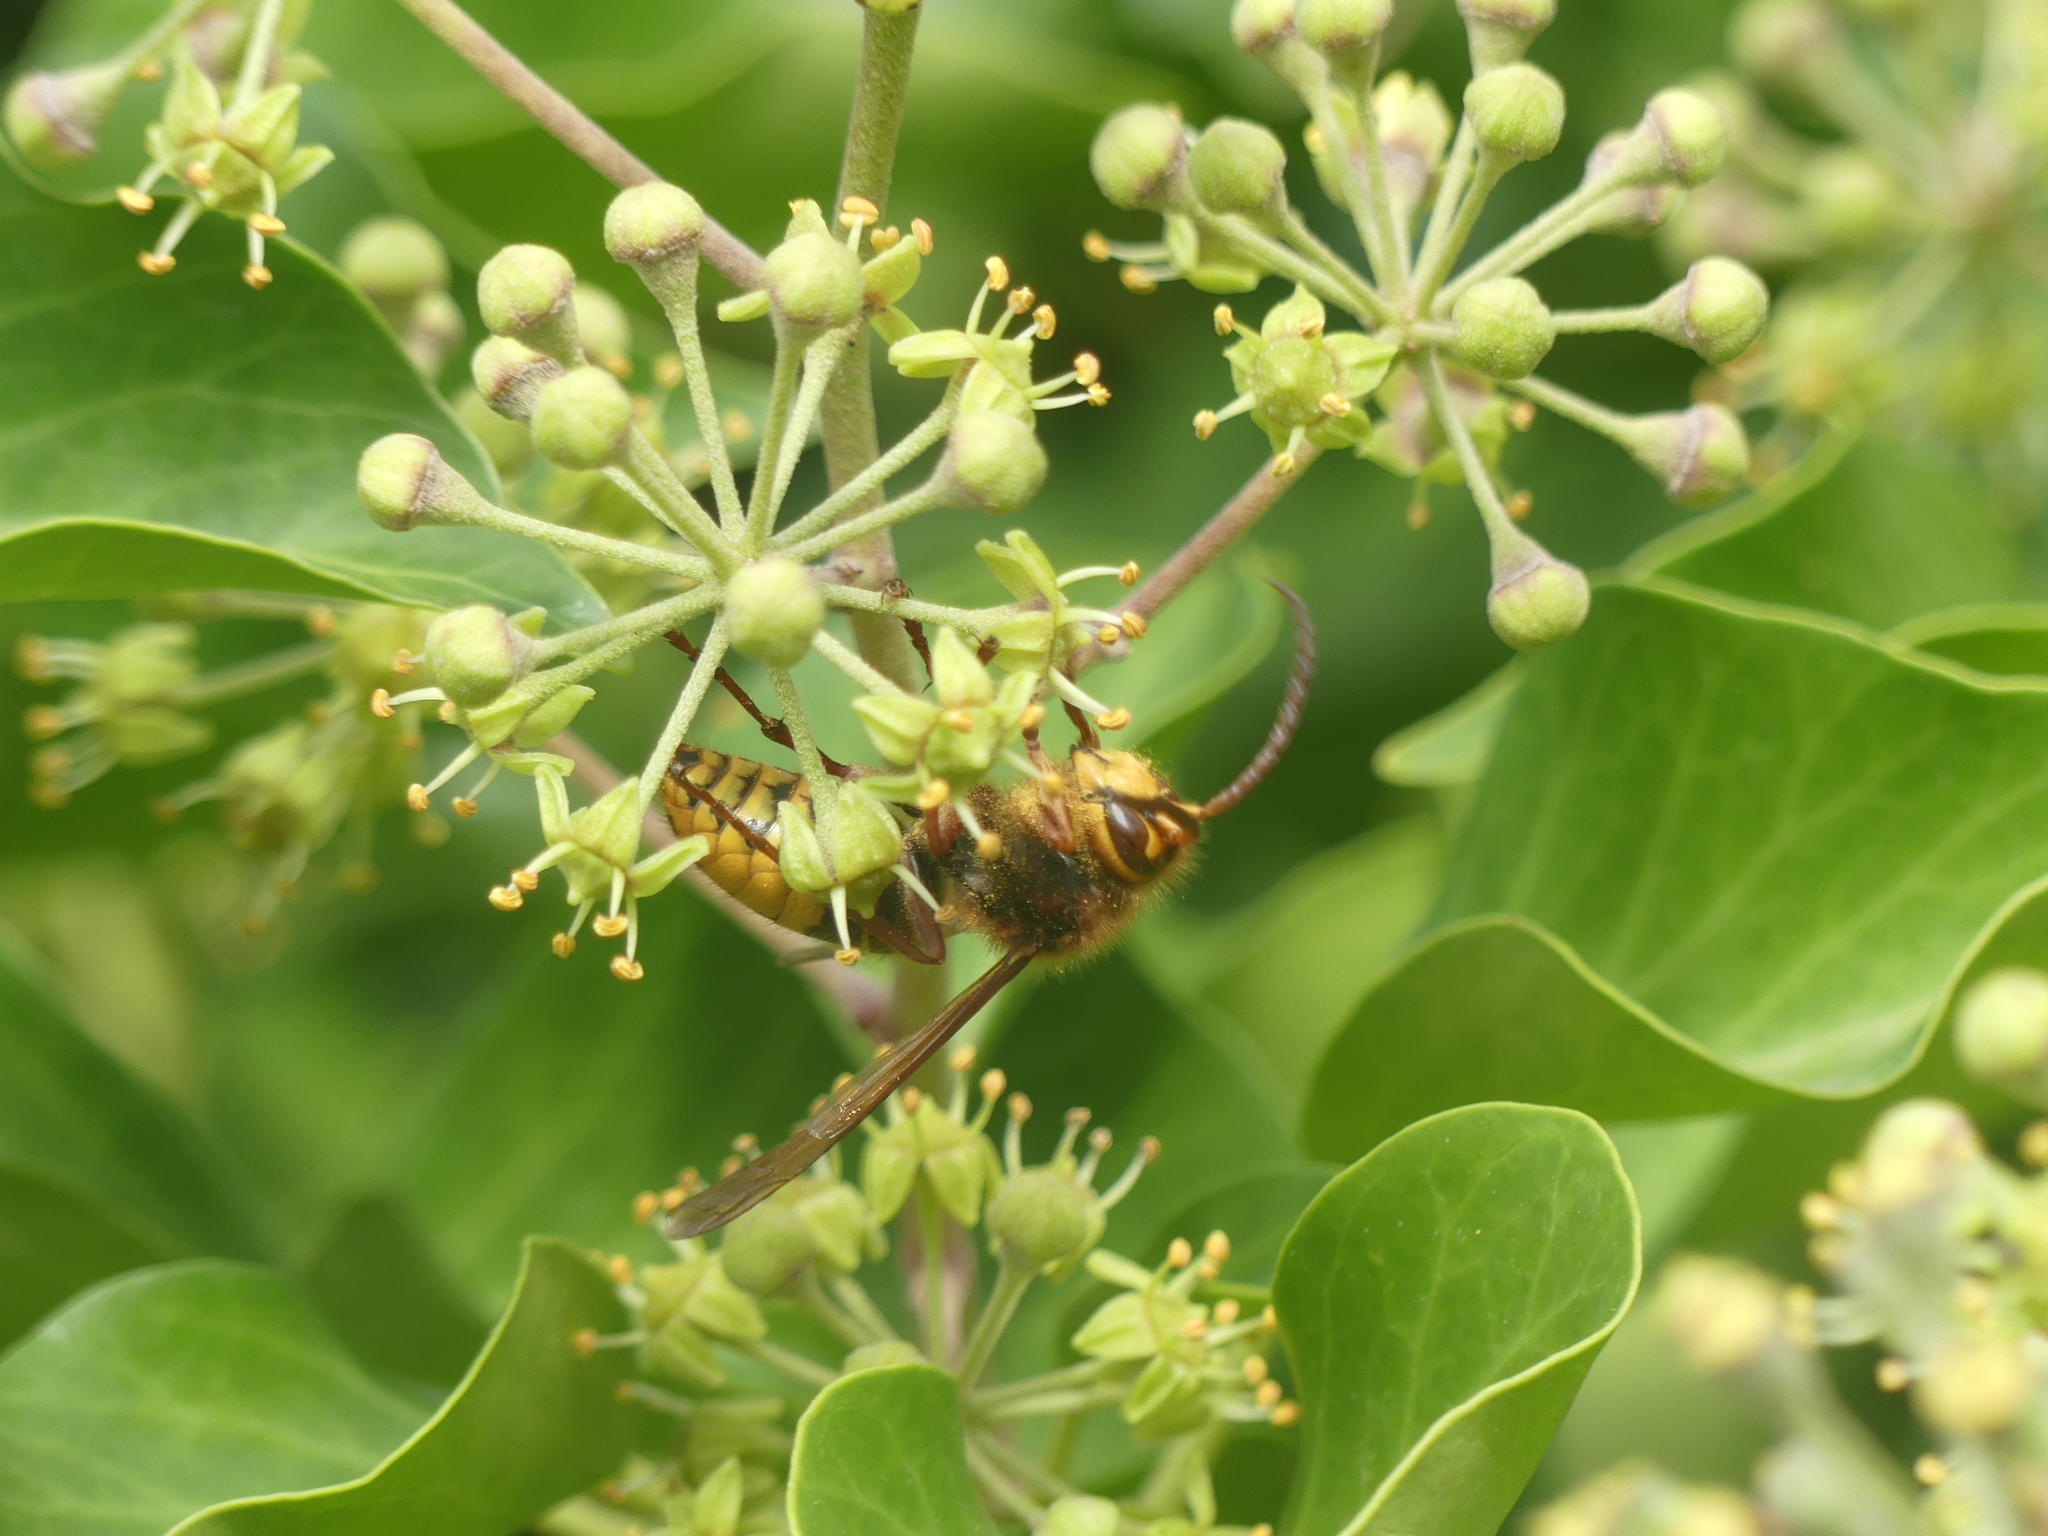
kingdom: Animalia
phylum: Arthropoda
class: Insecta
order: Hymenoptera
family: Vespidae
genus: Vespa
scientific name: Vespa crabro
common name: Hornet
